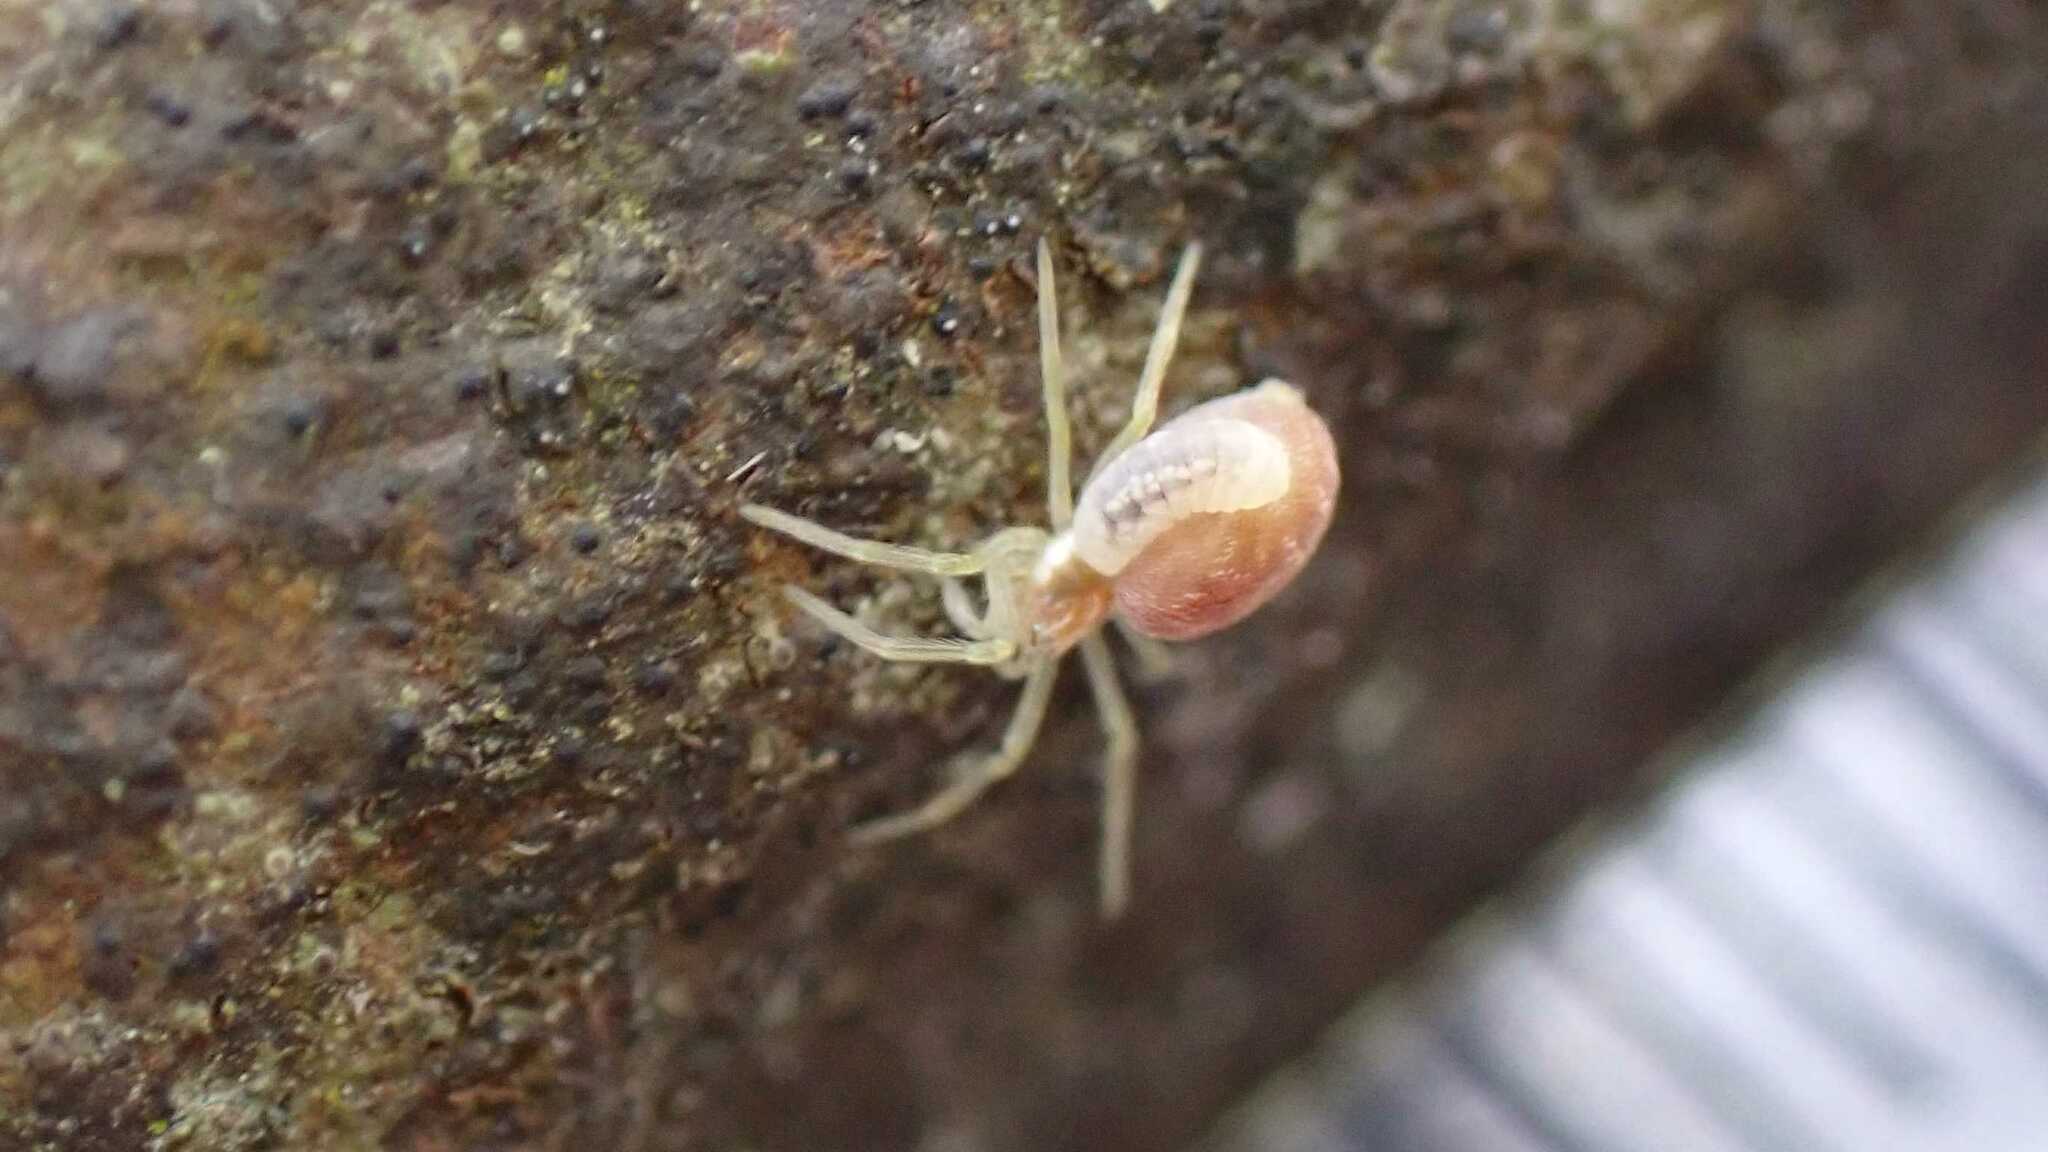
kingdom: Animalia
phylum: Arthropoda
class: Arachnida
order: Araneae
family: Dictynidae
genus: Nigma
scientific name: Nigma flavescens
